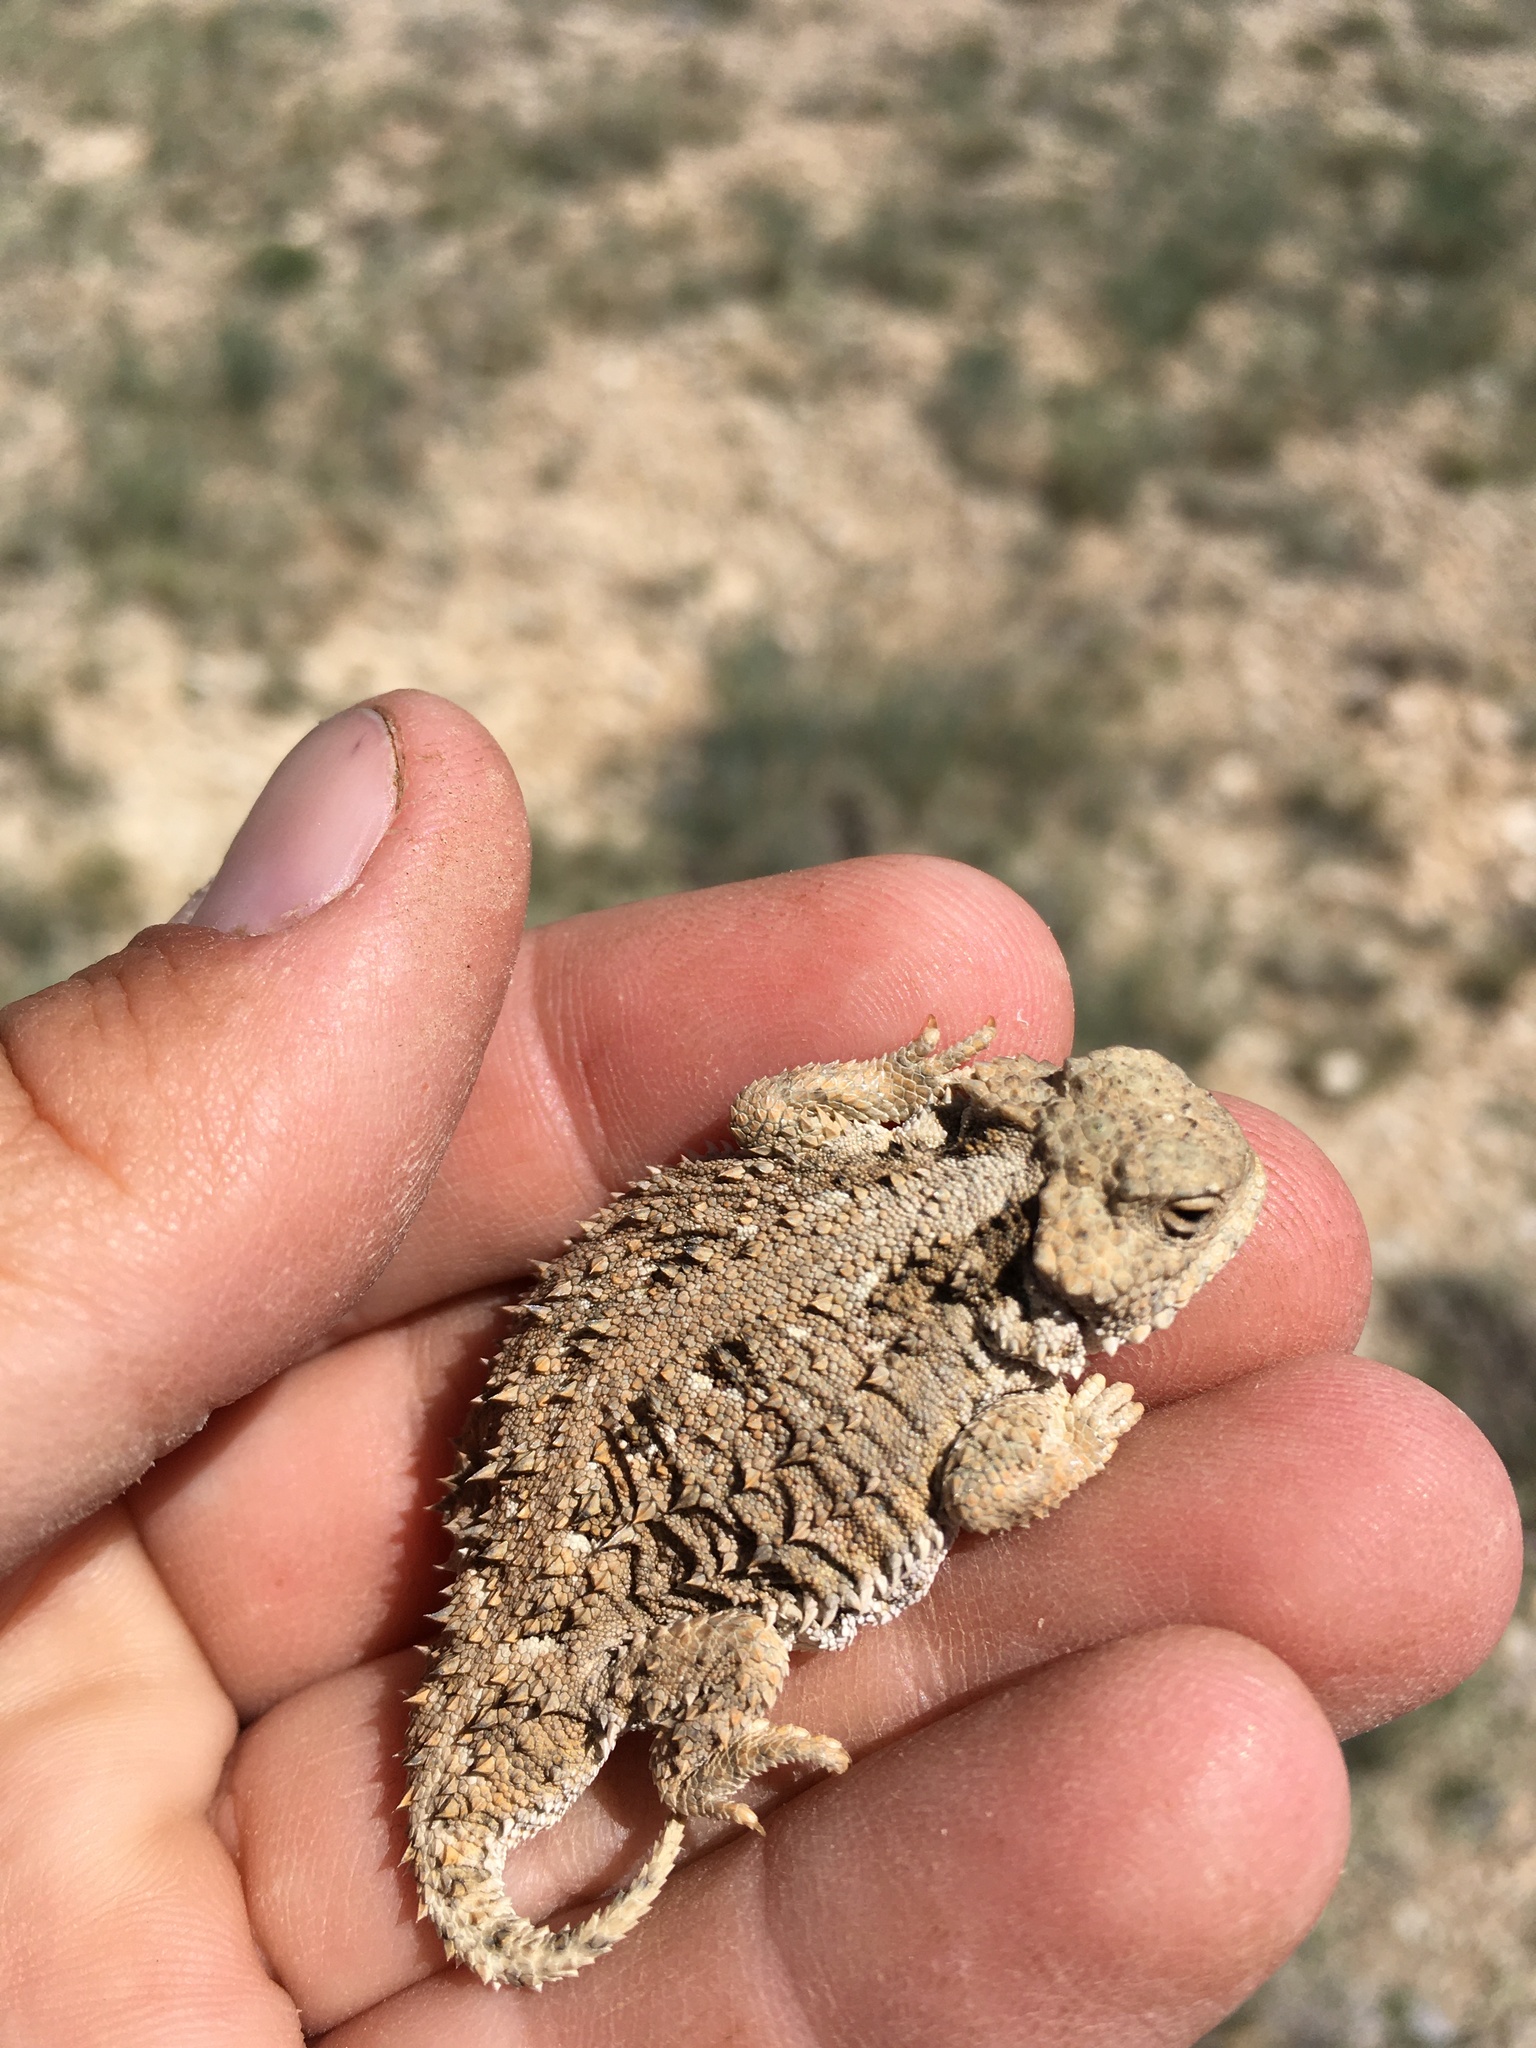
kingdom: Animalia
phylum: Chordata
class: Squamata
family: Phrynosomatidae
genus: Phrynosoma
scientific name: Phrynosoma hernandesi
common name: Greater short-horned lizard
